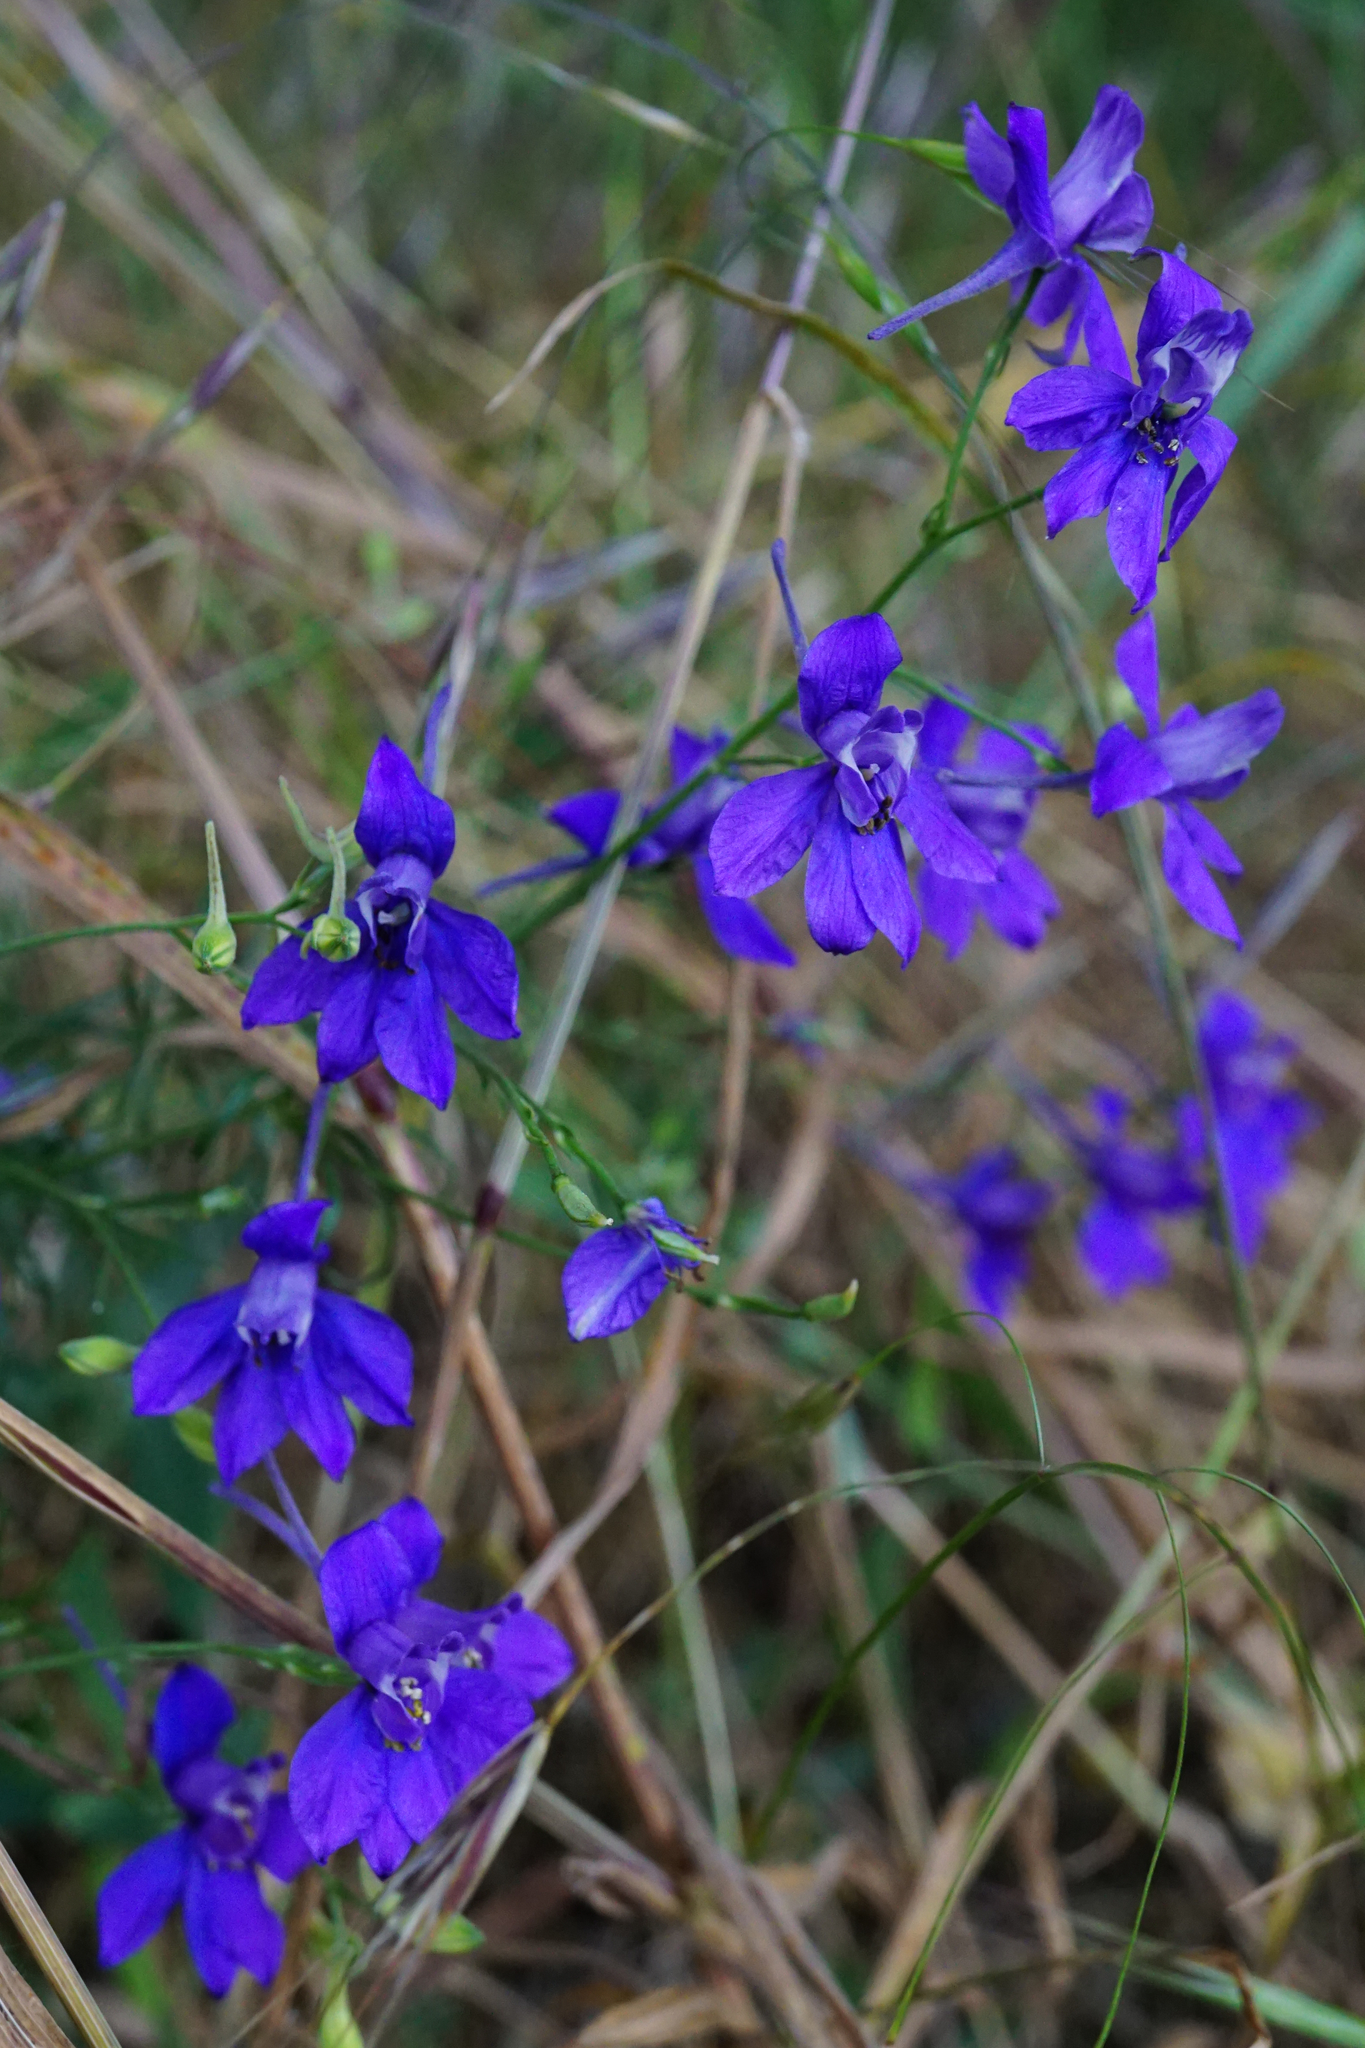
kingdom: Plantae
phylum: Tracheophyta
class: Magnoliopsida
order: Ranunculales
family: Ranunculaceae
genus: Delphinium
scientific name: Delphinium consolida
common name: Branching larkspur
